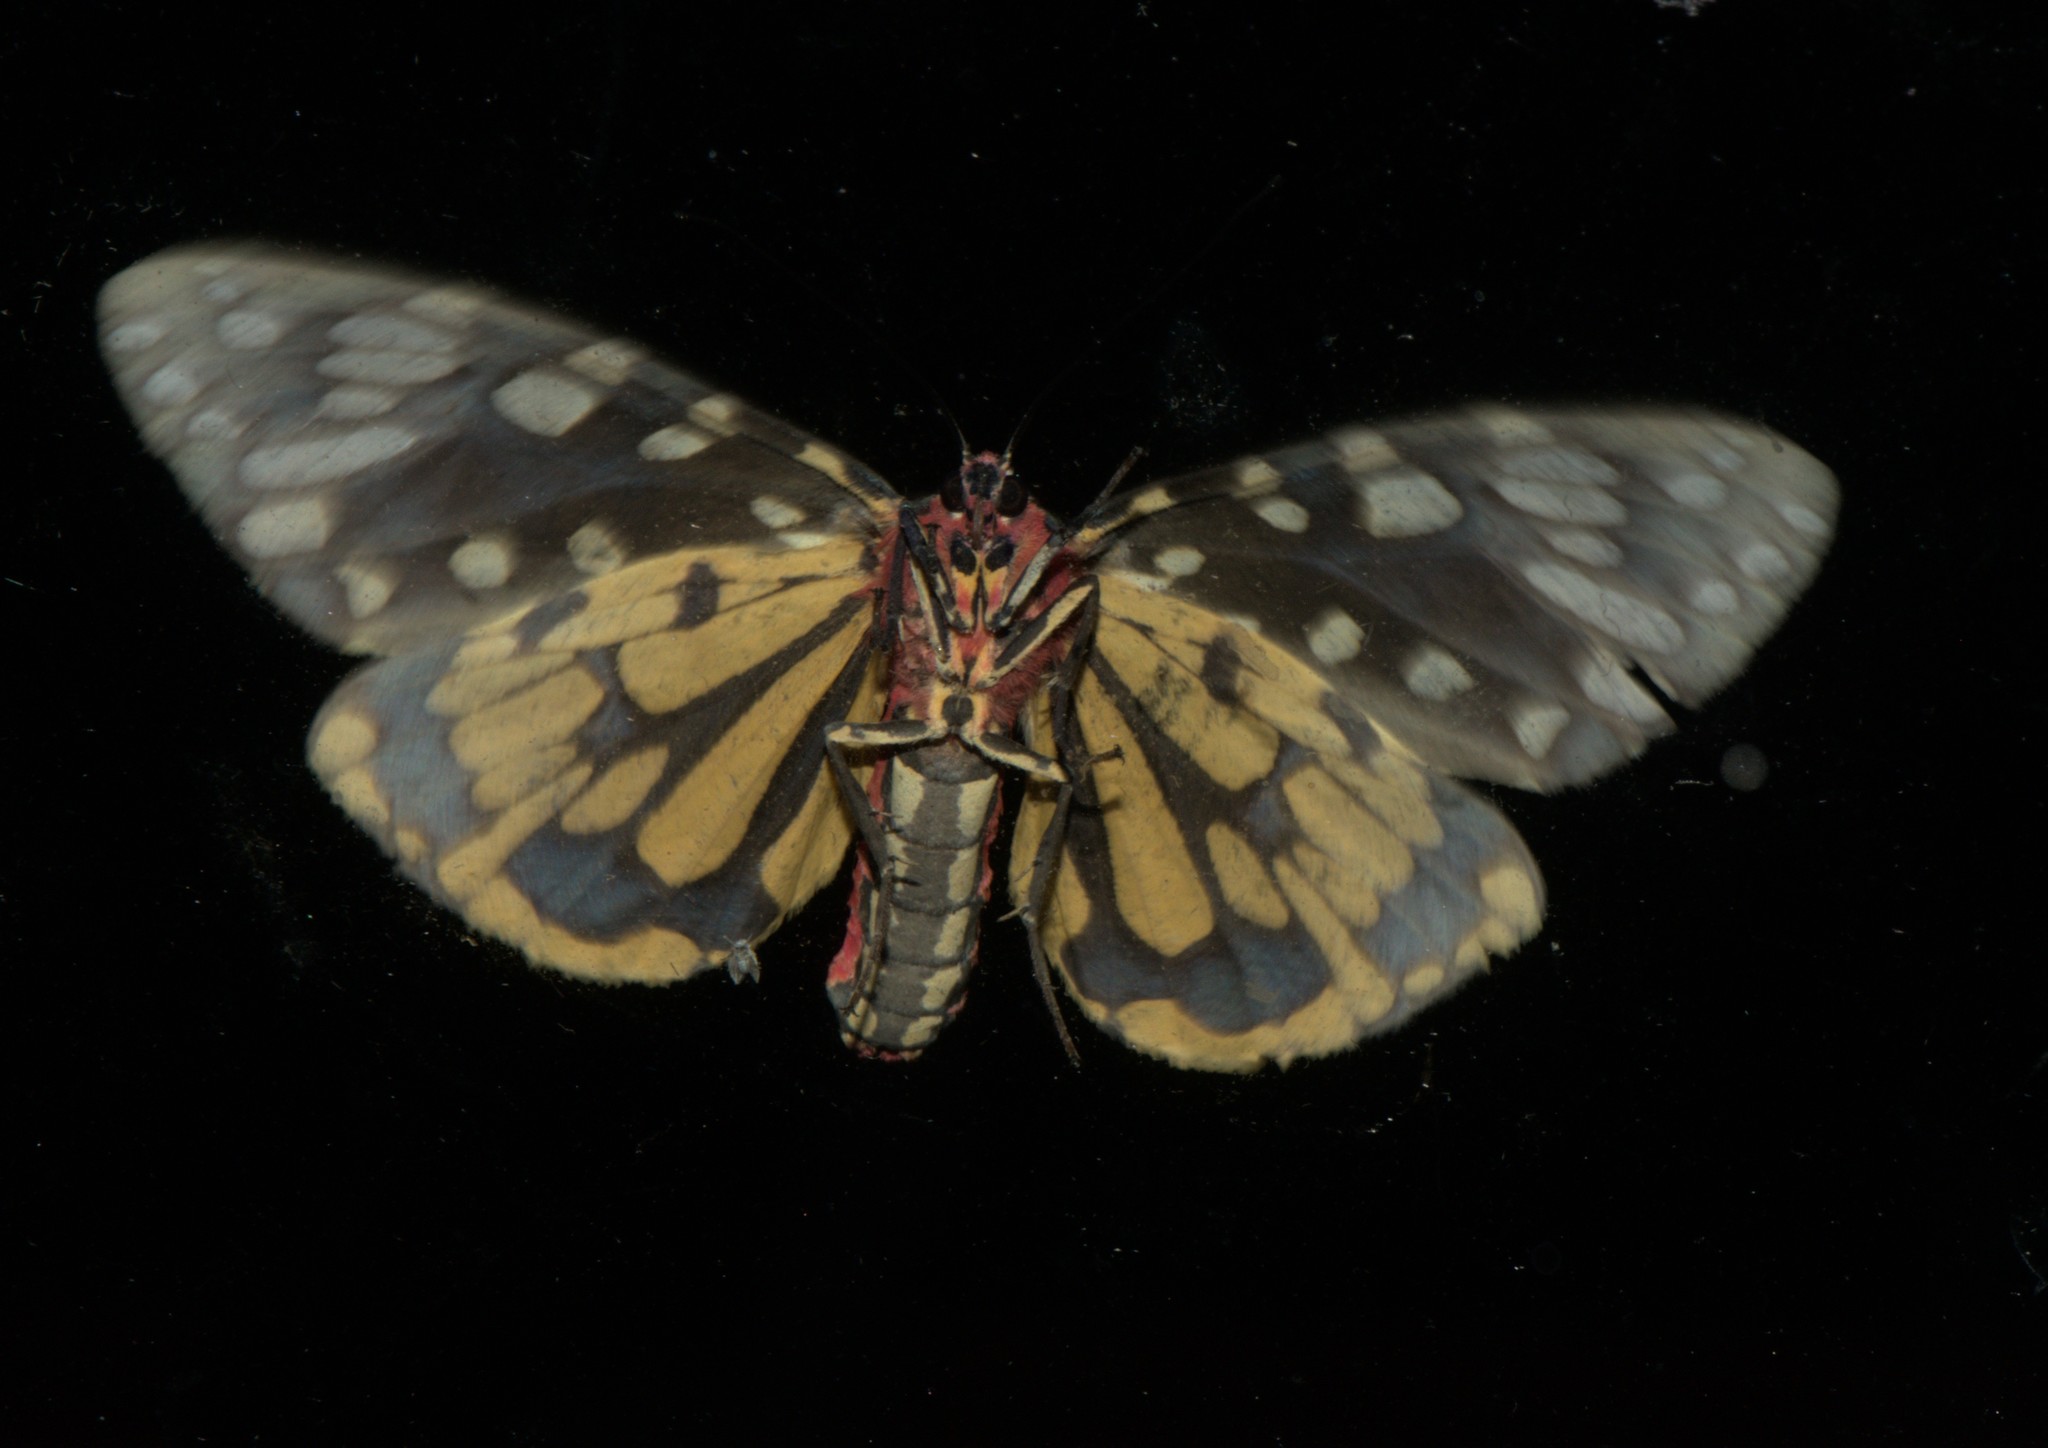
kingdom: Animalia
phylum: Arthropoda
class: Insecta
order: Lepidoptera
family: Erebidae
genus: Callindra
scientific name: Callindra principalis
